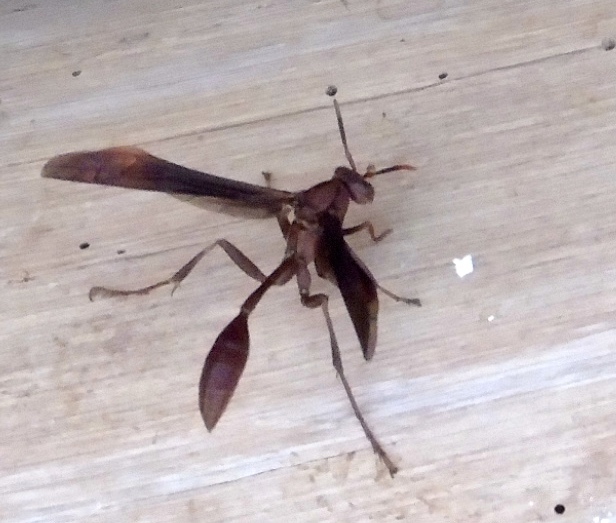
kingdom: Animalia
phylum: Arthropoda
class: Insecta
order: Hymenoptera
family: Vespidae
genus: Mischocyttarus
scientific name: Mischocyttarus melanarius
